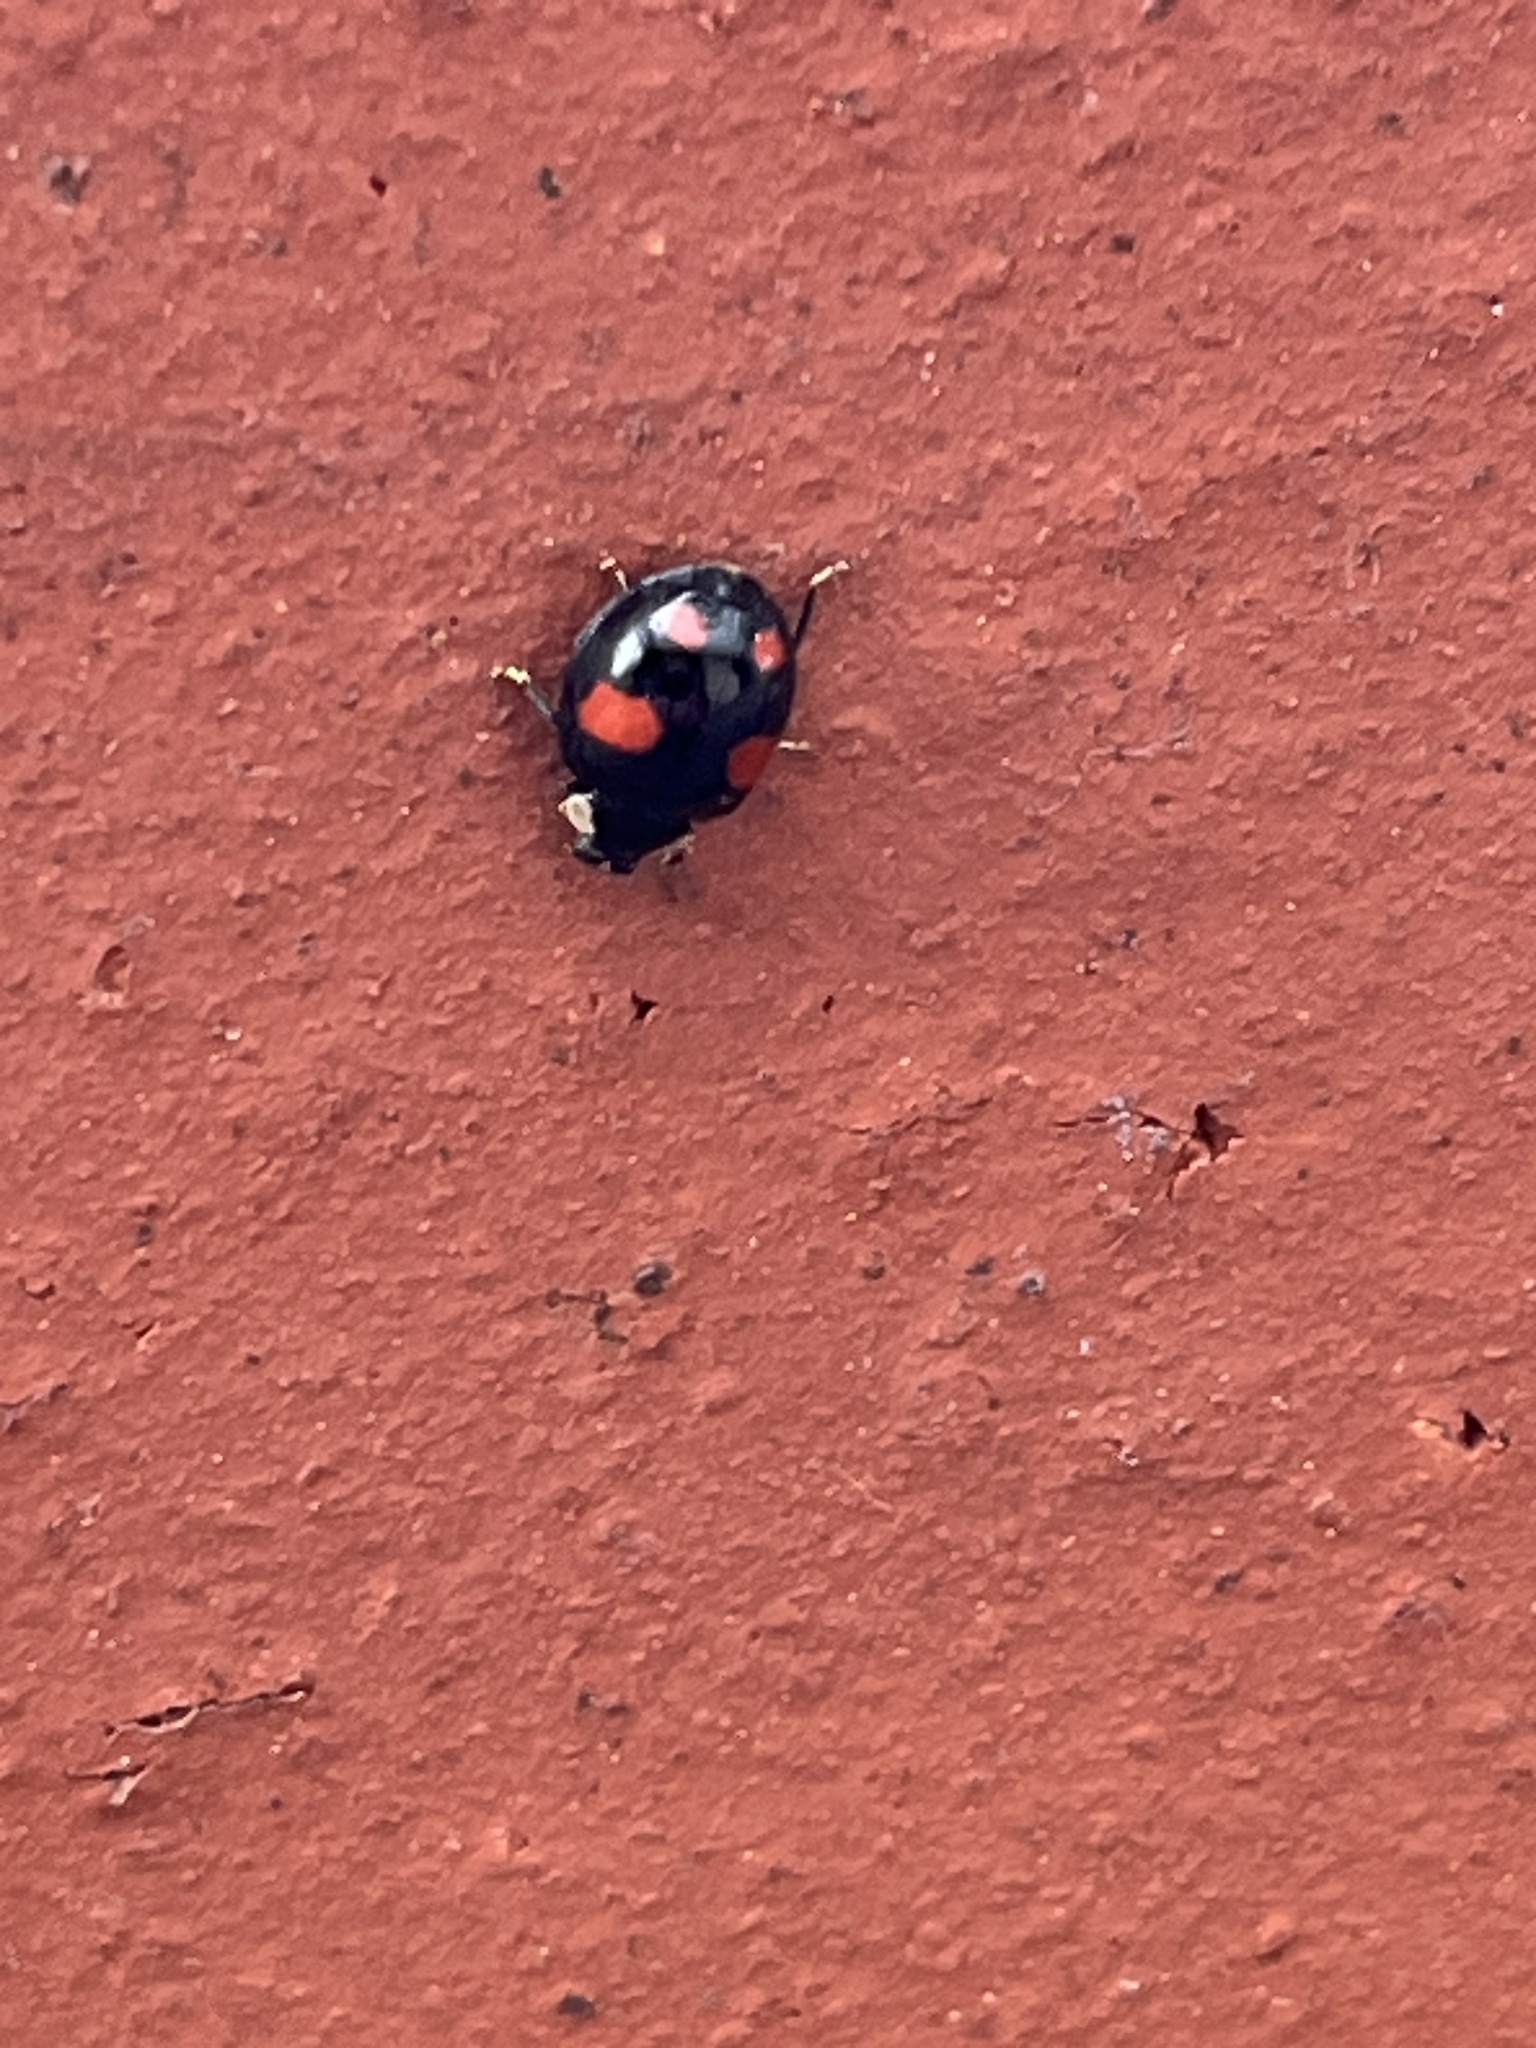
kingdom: Animalia
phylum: Arthropoda
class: Insecta
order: Coleoptera
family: Coccinellidae
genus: Harmonia
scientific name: Harmonia axyridis
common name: Harlequin ladybird
